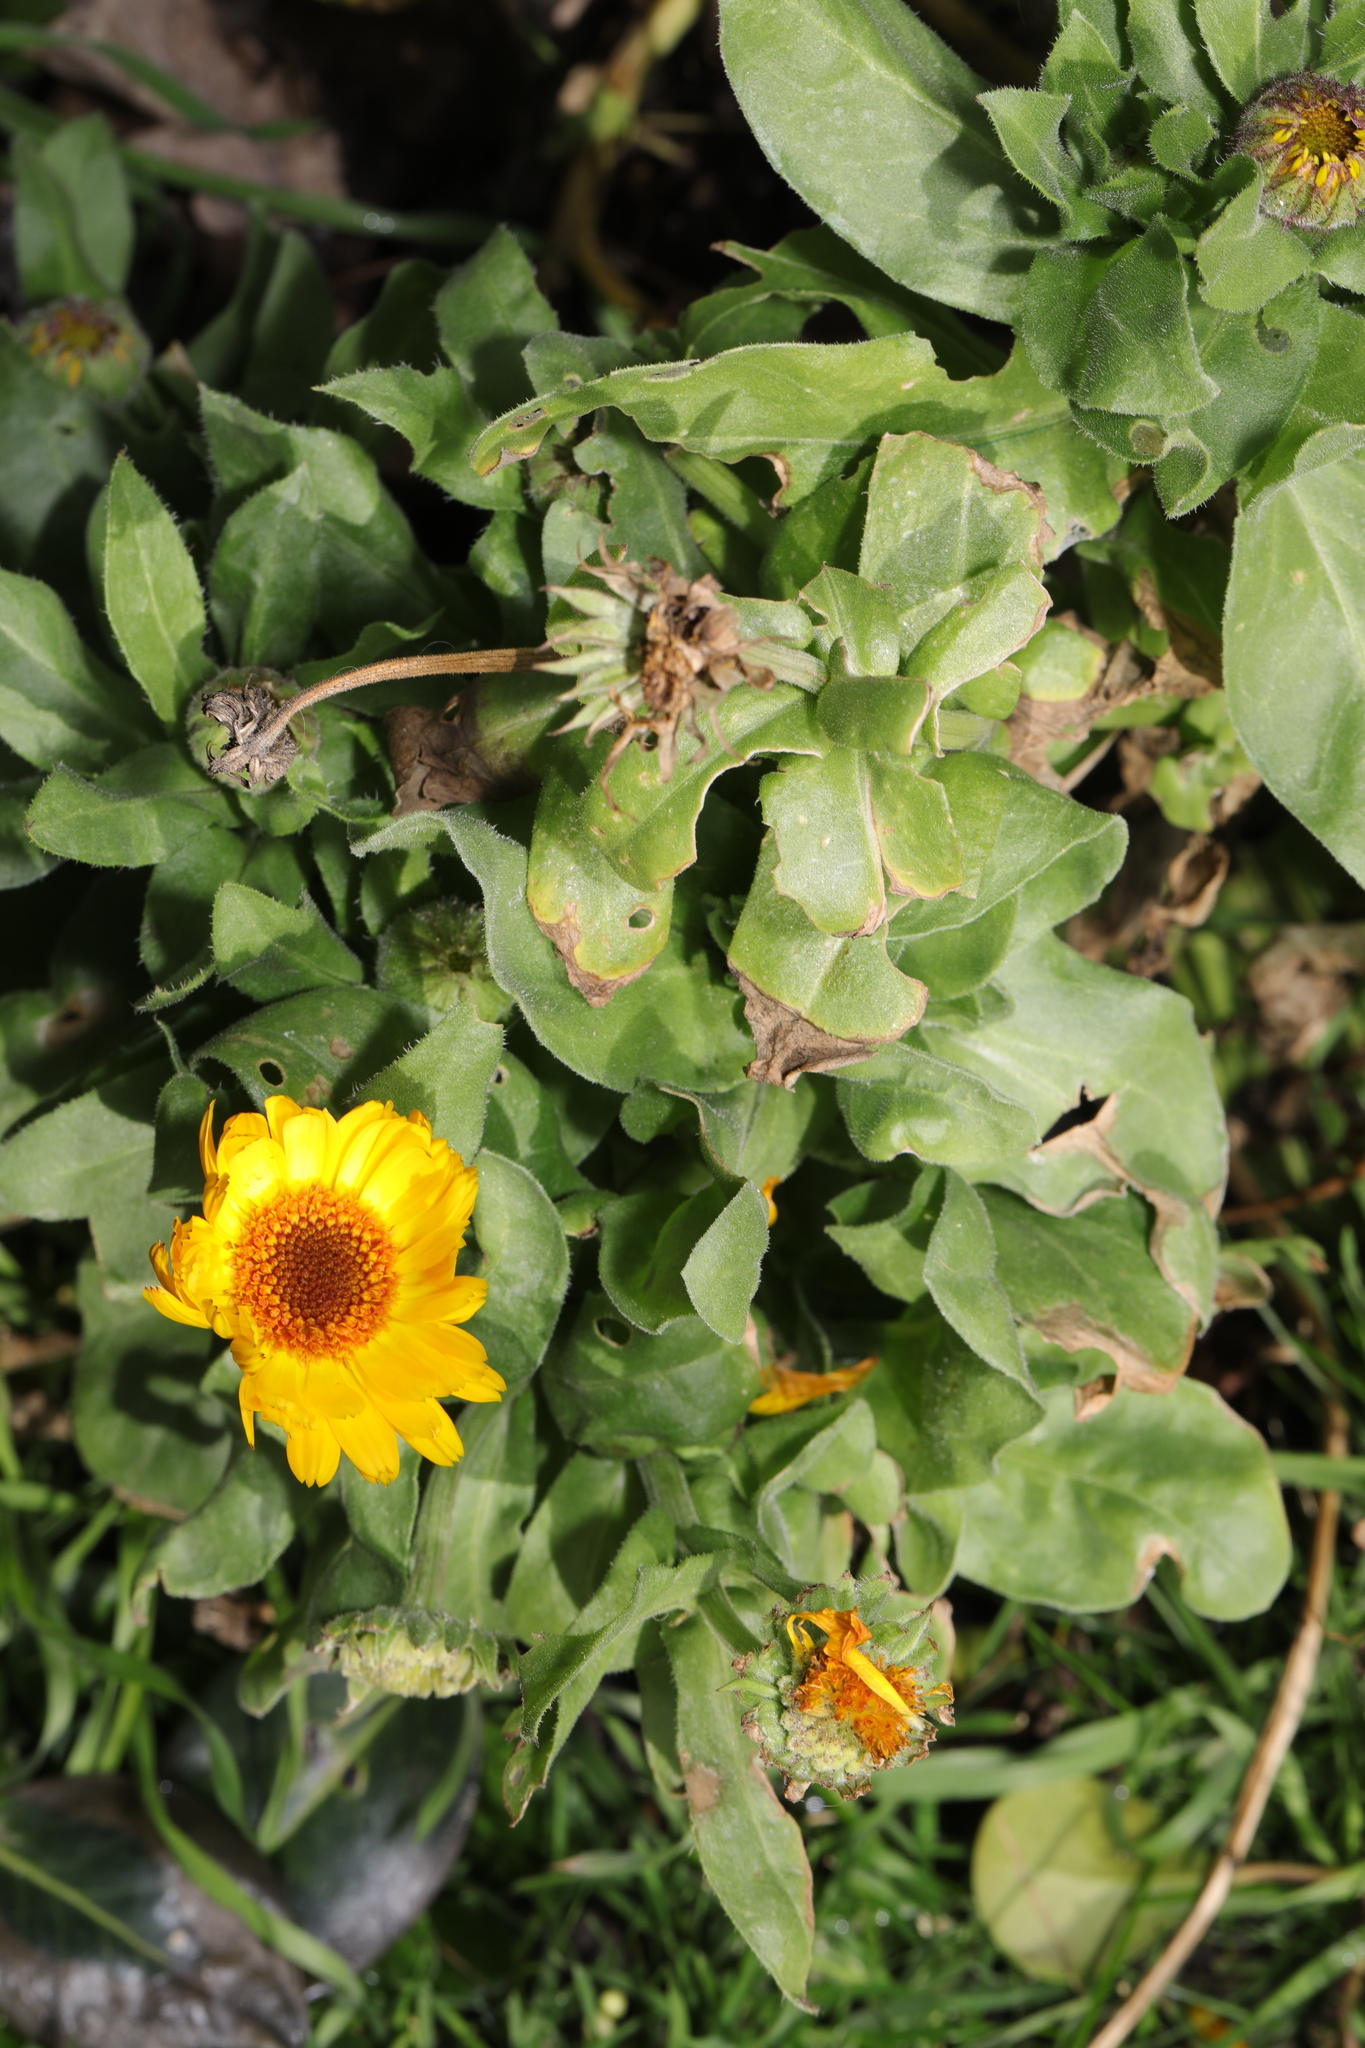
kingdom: Plantae
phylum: Tracheophyta
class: Magnoliopsida
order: Asterales
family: Asteraceae
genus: Calendula
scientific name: Calendula officinalis
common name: Pot marigold
